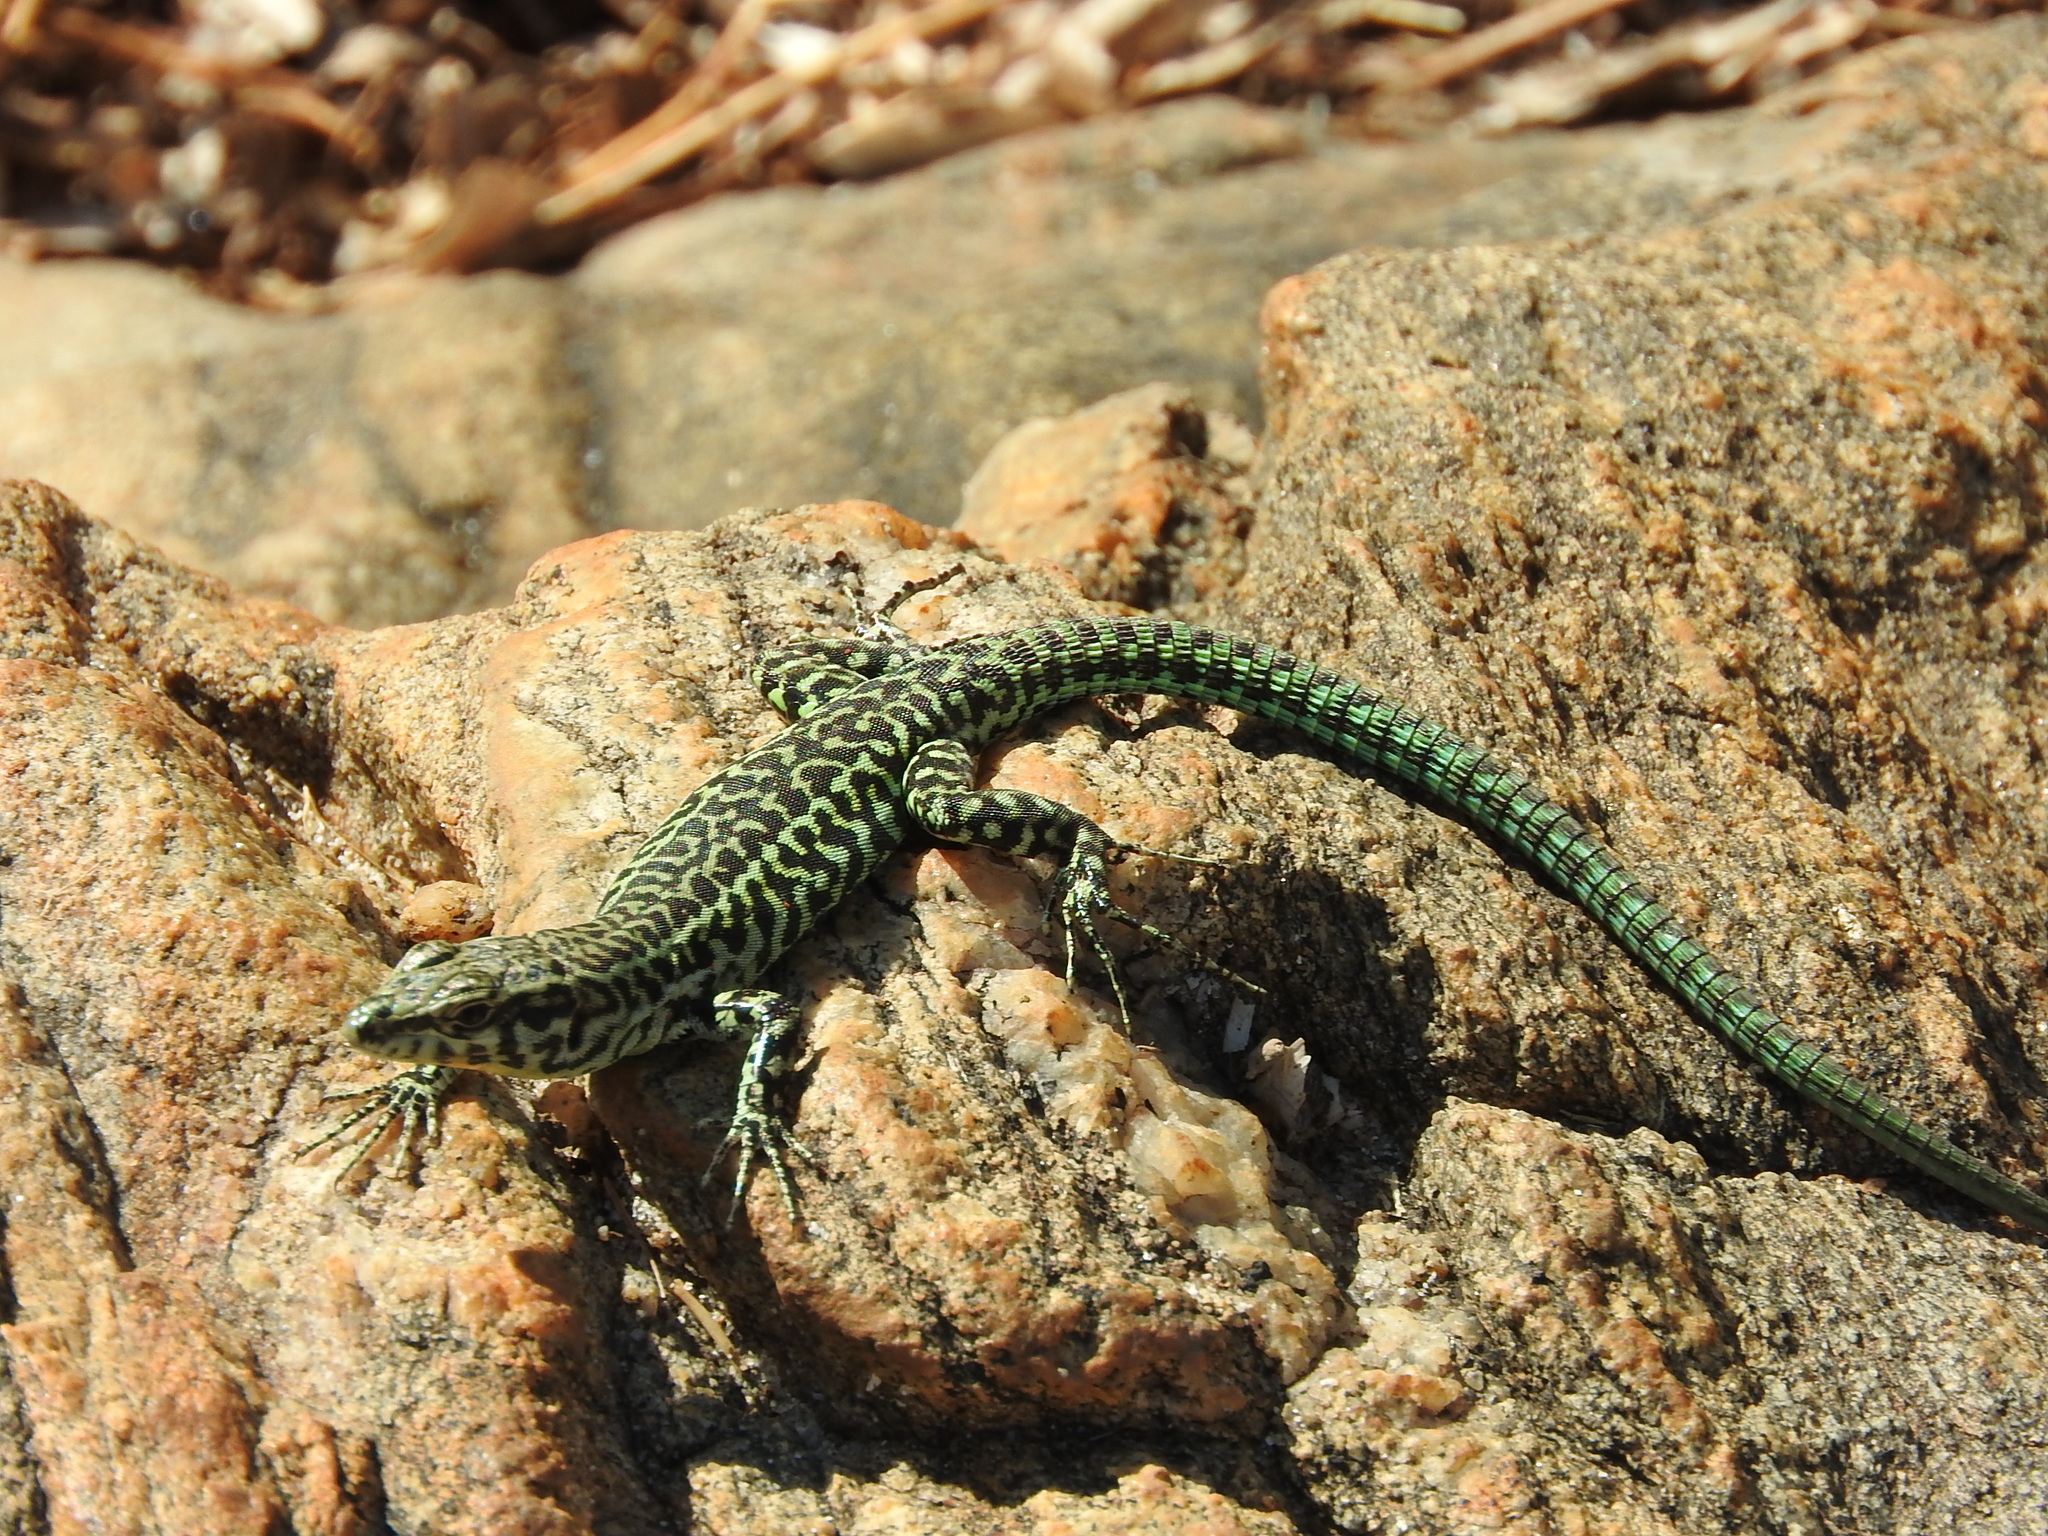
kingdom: Animalia
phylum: Chordata
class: Squamata
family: Lacertidae
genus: Podarcis
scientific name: Podarcis tiliguerta
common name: Tyrrhenian wall lizard
